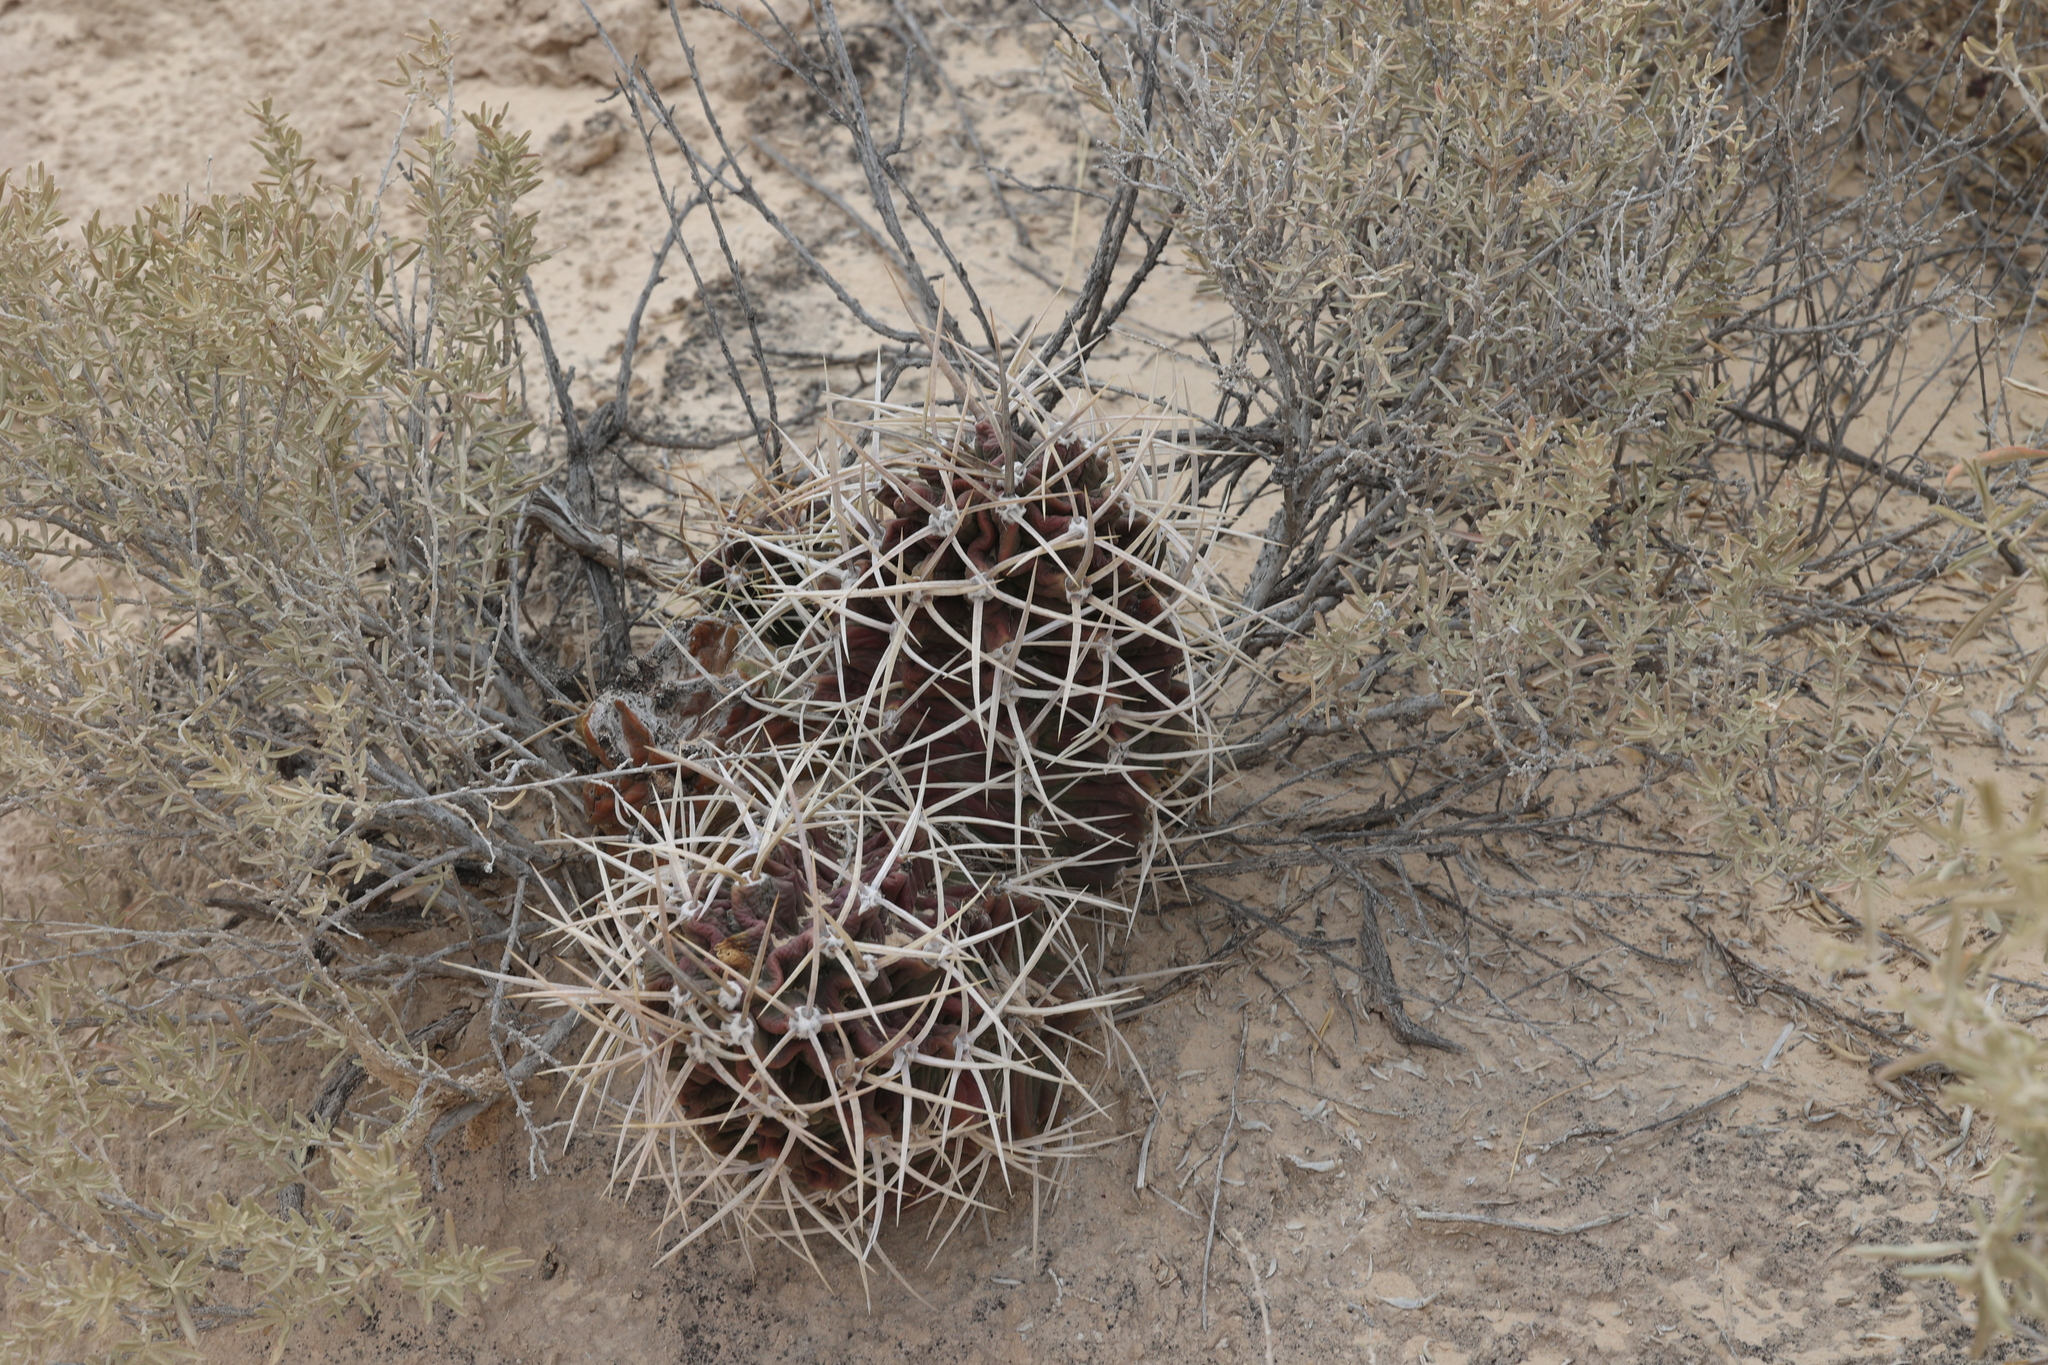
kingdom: Plantae
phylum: Tracheophyta
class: Magnoliopsida
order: Caryophyllales
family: Cactaceae
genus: Echinocereus
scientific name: Echinocereus triglochidiatus
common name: Claretcup hedgehog
